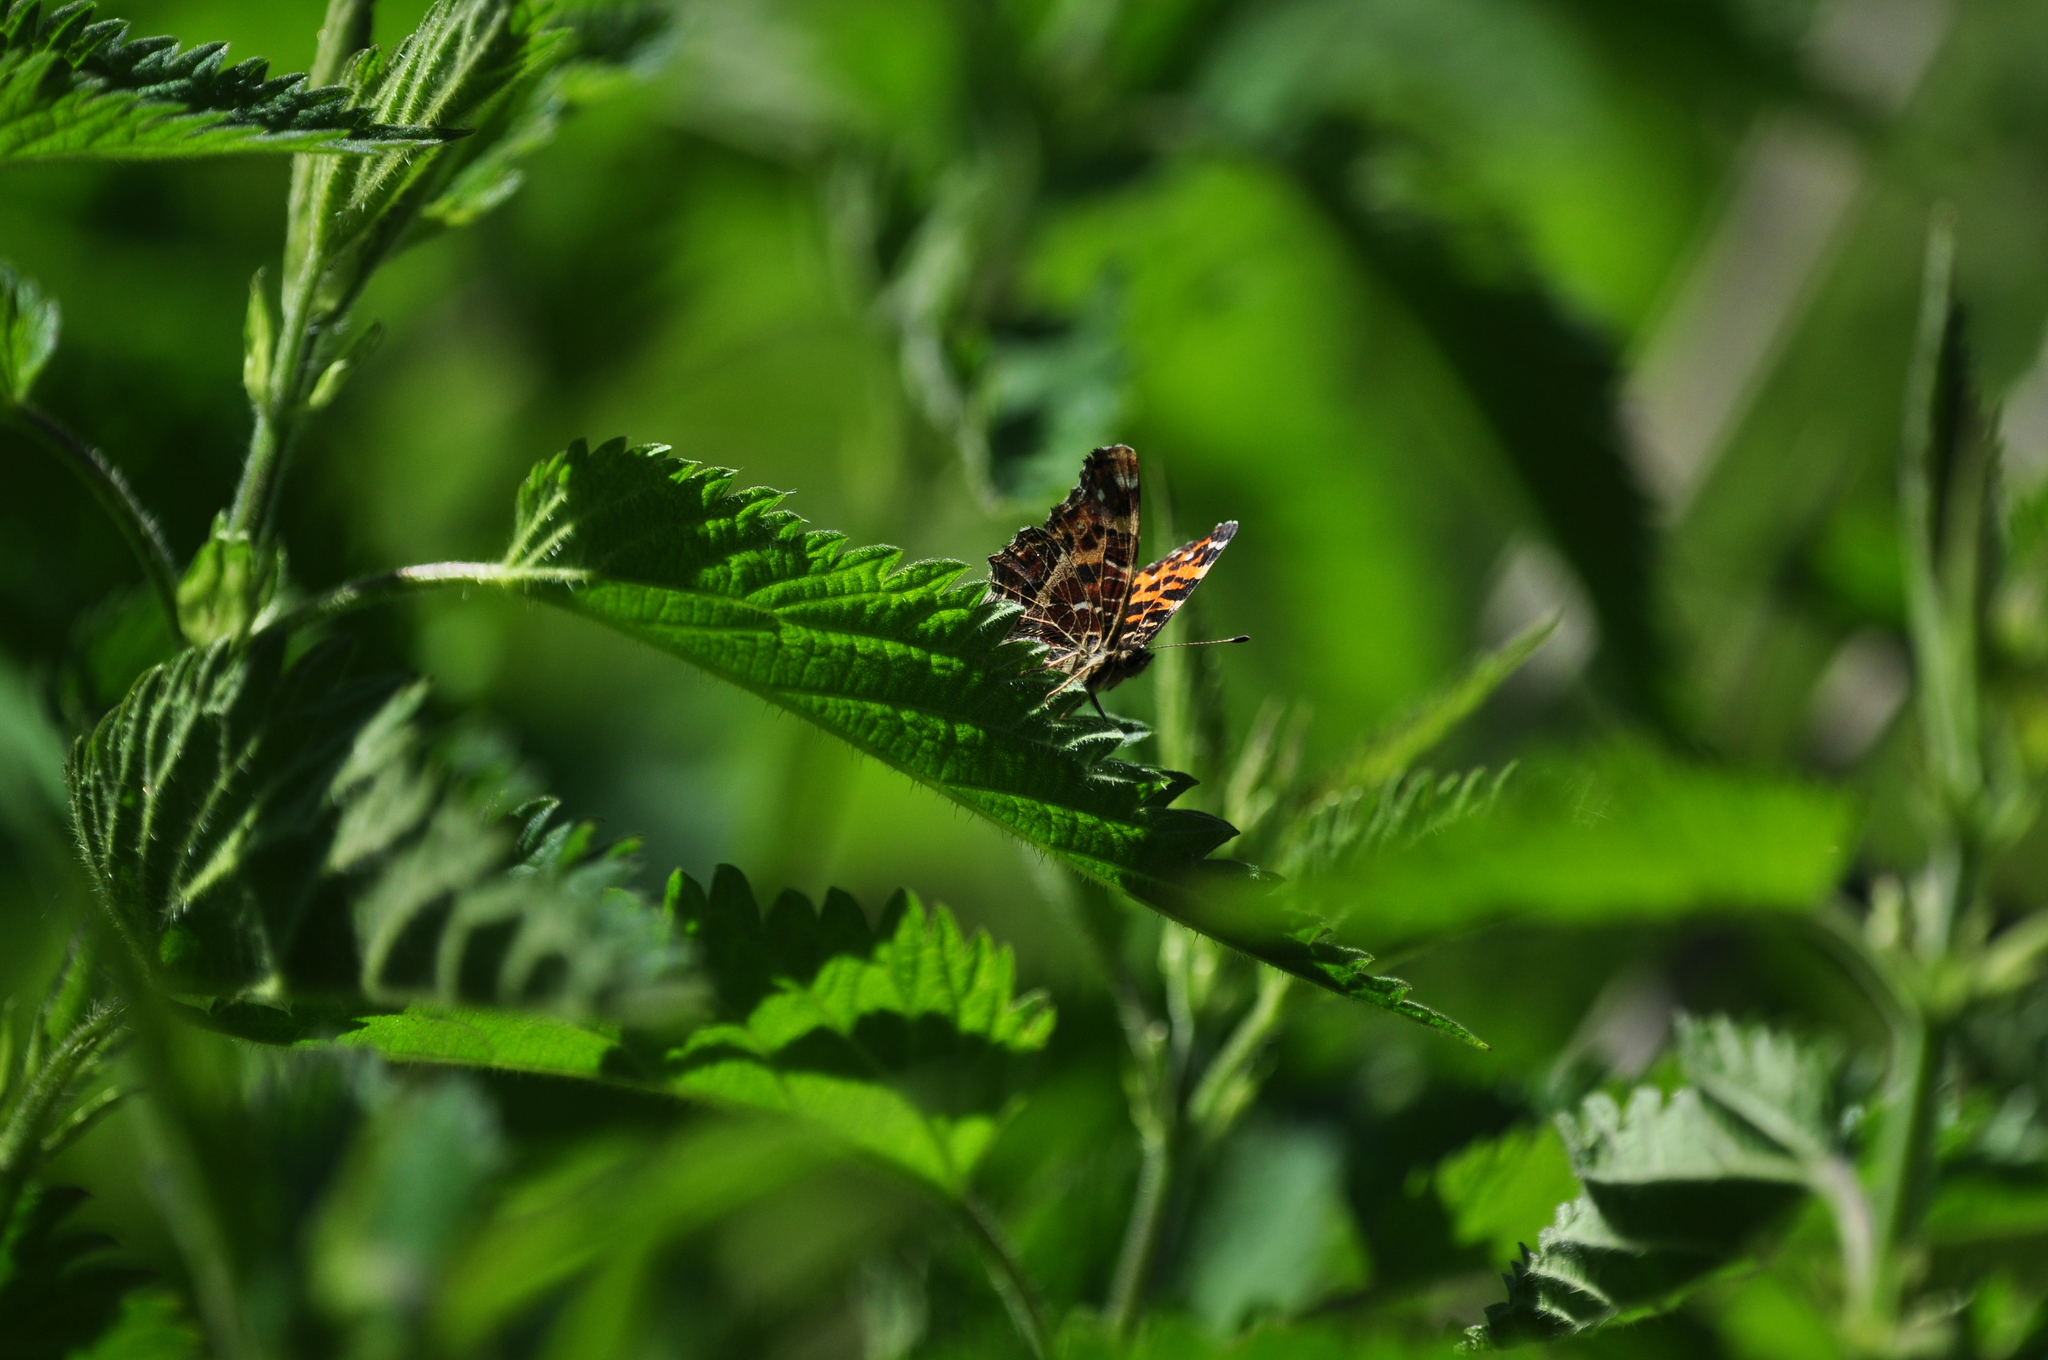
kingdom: Animalia
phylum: Arthropoda
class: Insecta
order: Lepidoptera
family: Nymphalidae
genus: Araschnia
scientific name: Araschnia levana
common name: Map butterfly
